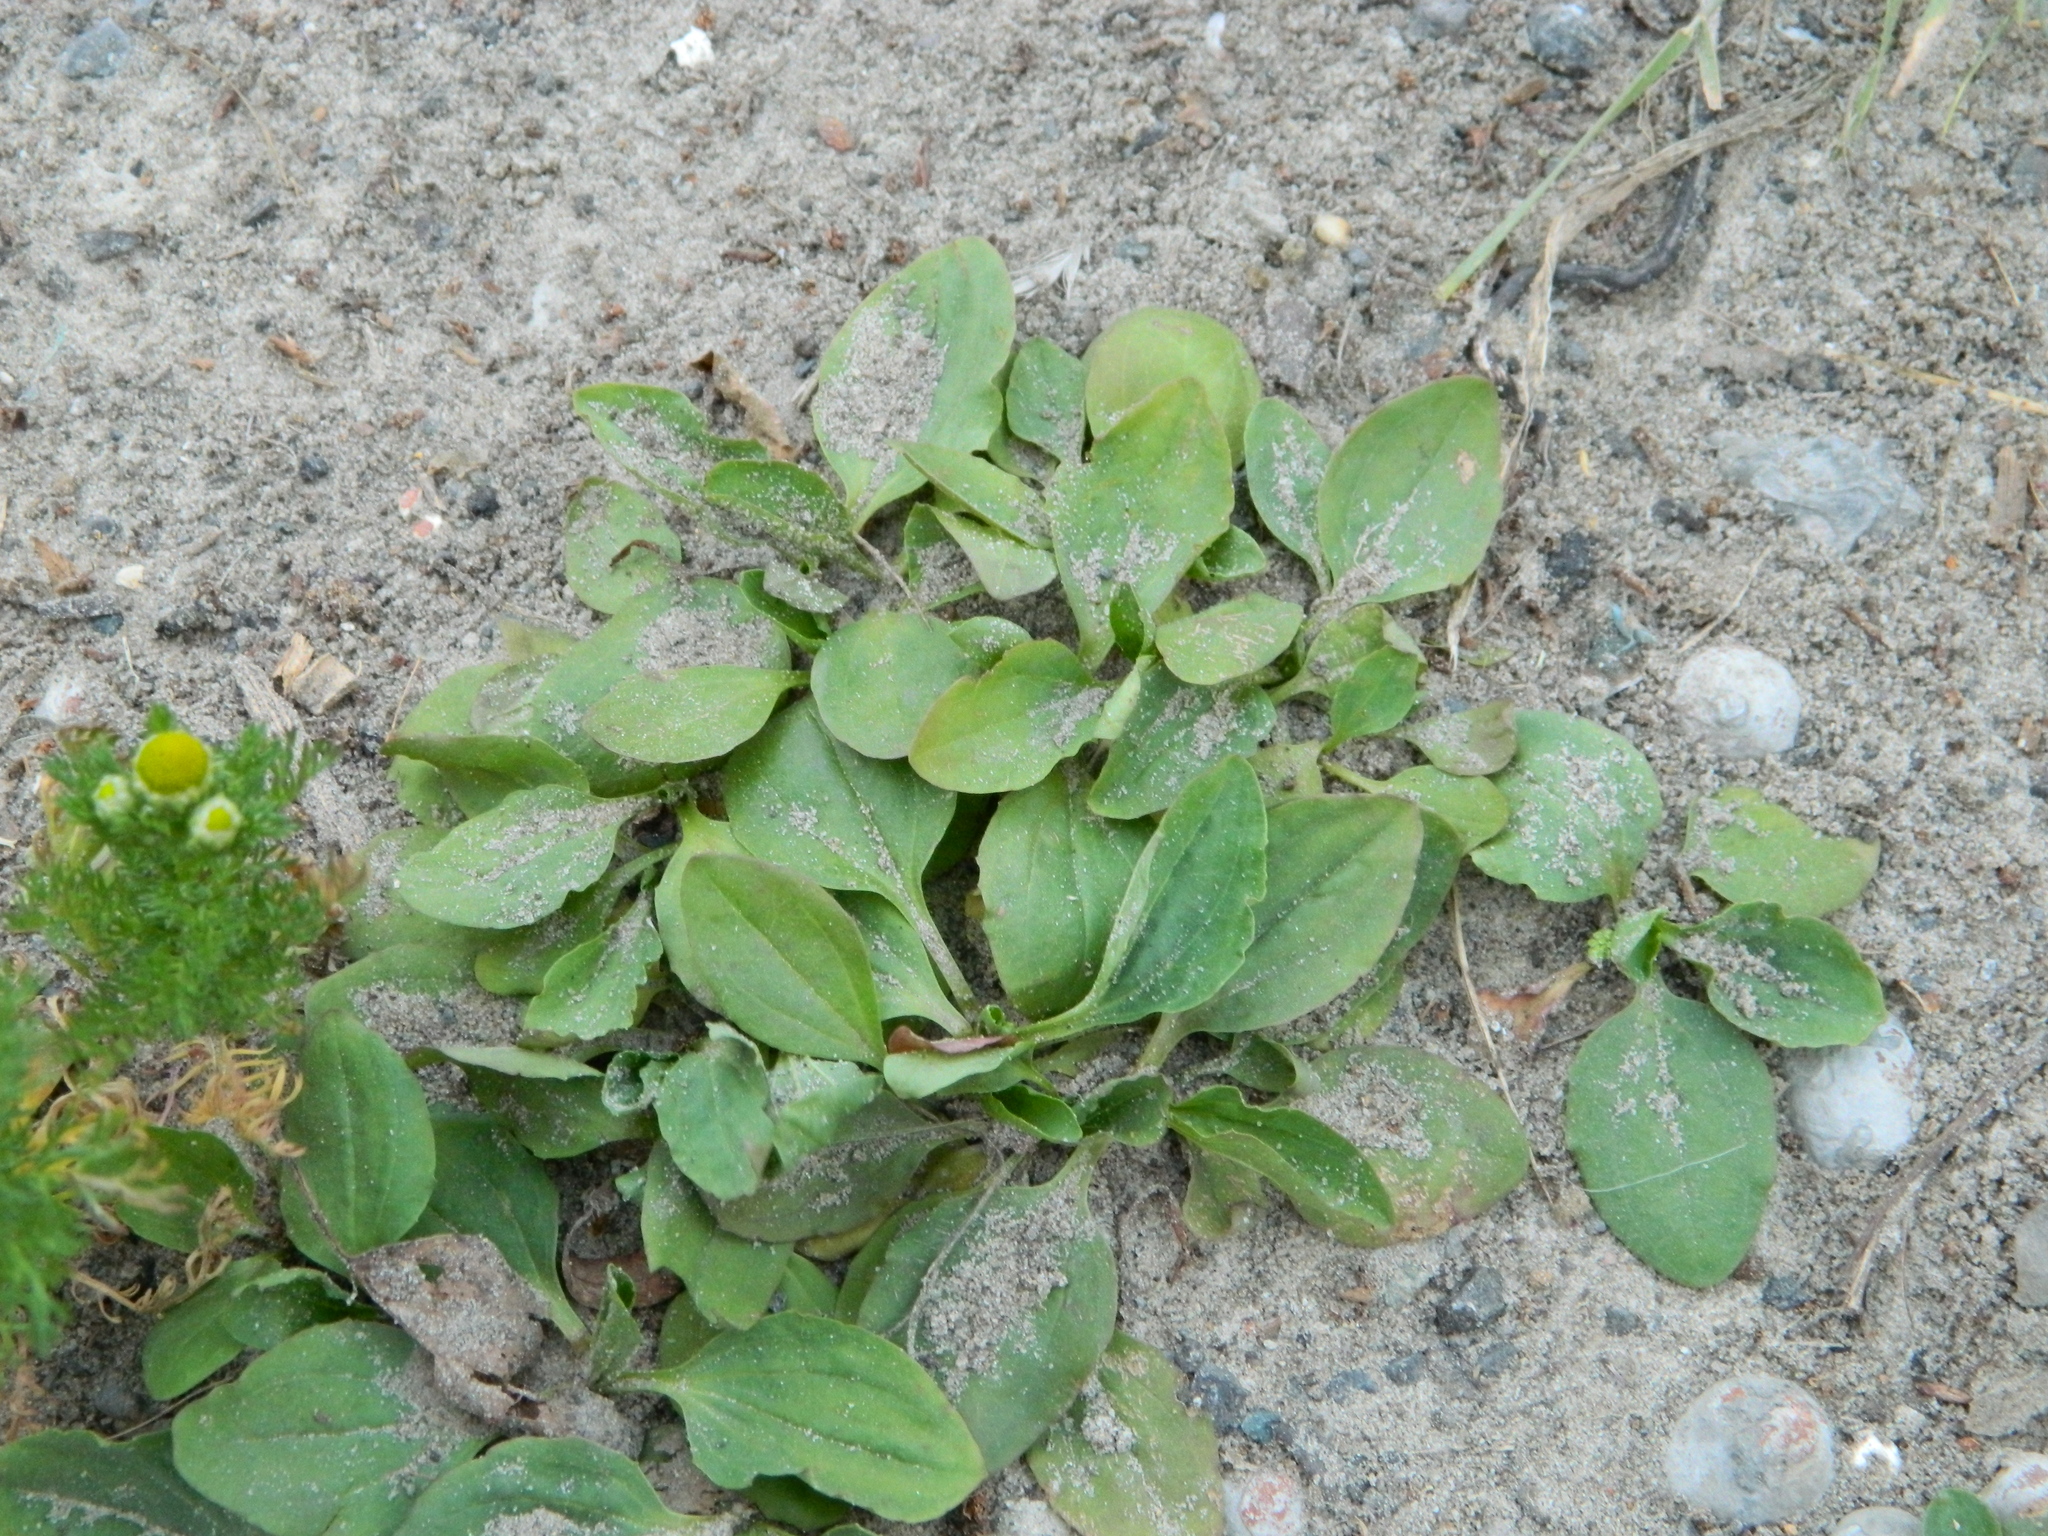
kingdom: Plantae
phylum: Tracheophyta
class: Magnoliopsida
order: Lamiales
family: Plantaginaceae
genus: Plantago
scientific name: Plantago major
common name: Common plantain
